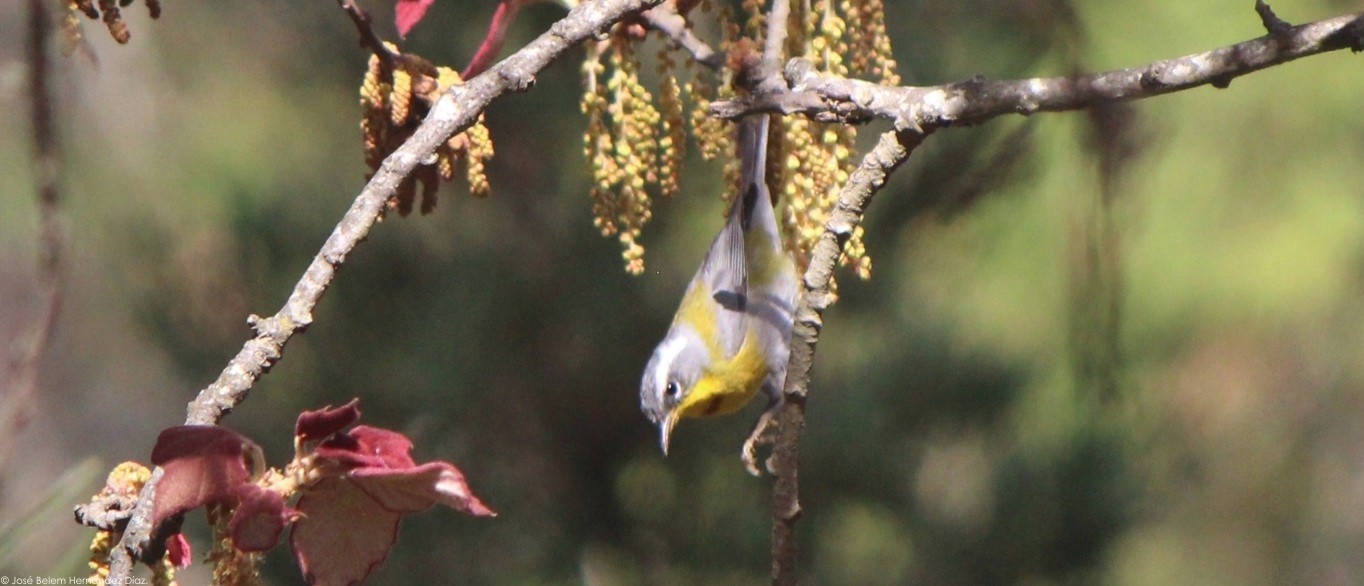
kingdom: Animalia
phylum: Chordata
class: Aves
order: Passeriformes
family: Parulidae
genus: Oreothlypis
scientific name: Oreothlypis superciliosa
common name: Crescent-chested warbler
